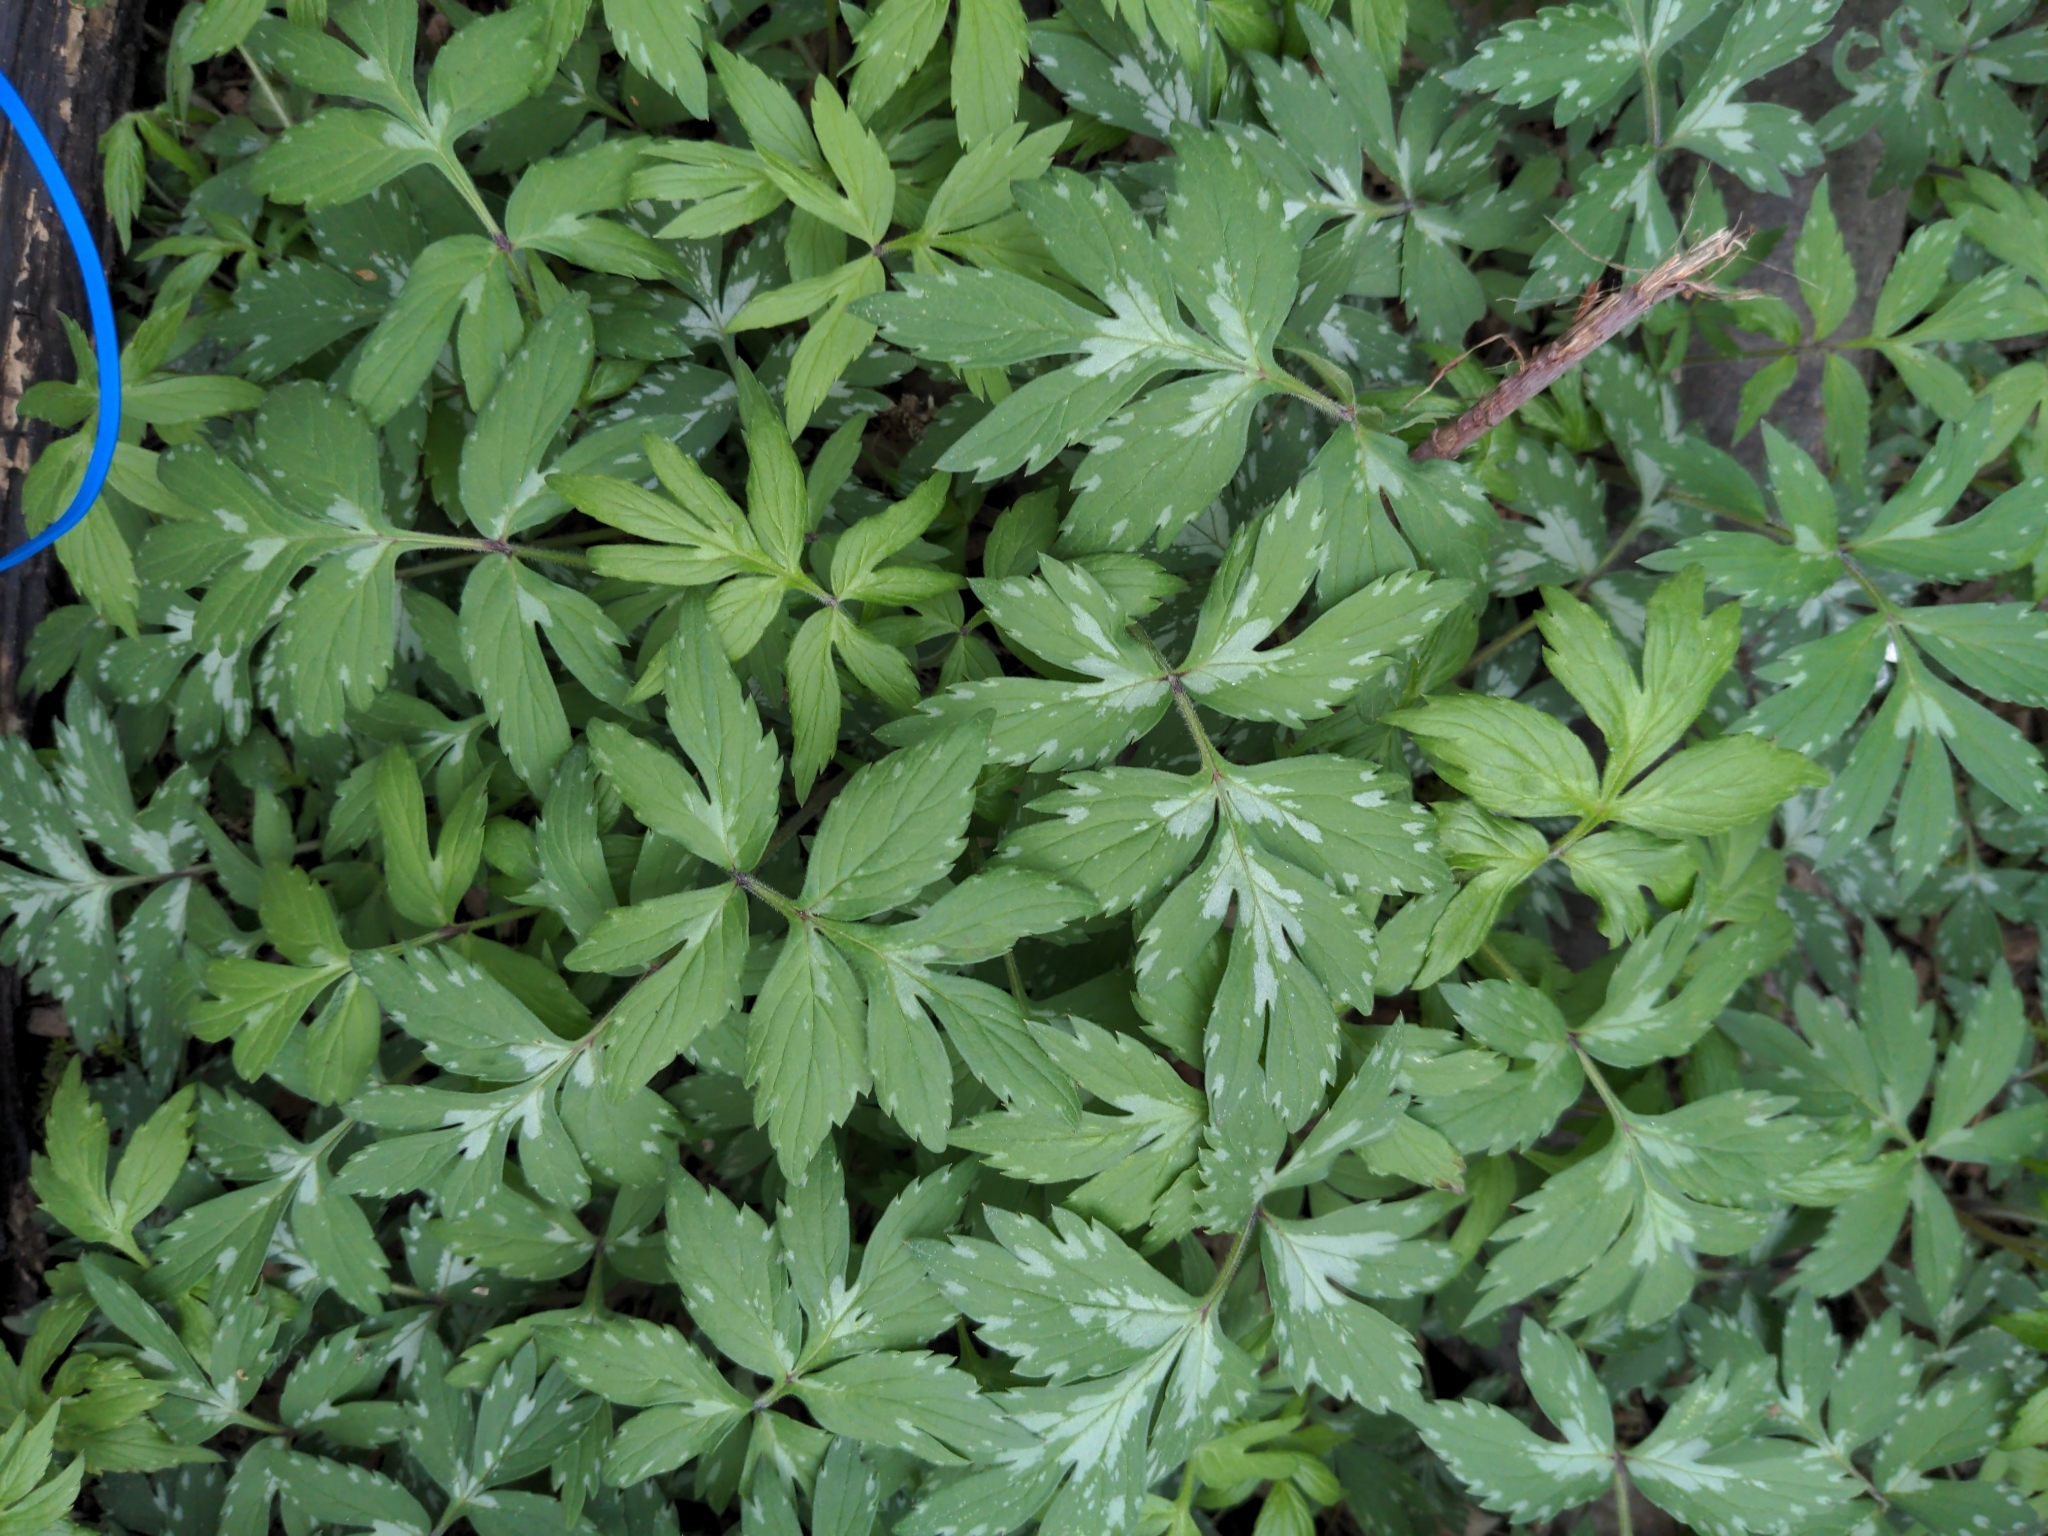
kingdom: Plantae
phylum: Tracheophyta
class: Magnoliopsida
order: Boraginales
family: Hydrophyllaceae
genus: Hydrophyllum
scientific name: Hydrophyllum virginianum
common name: Virginia waterleaf
